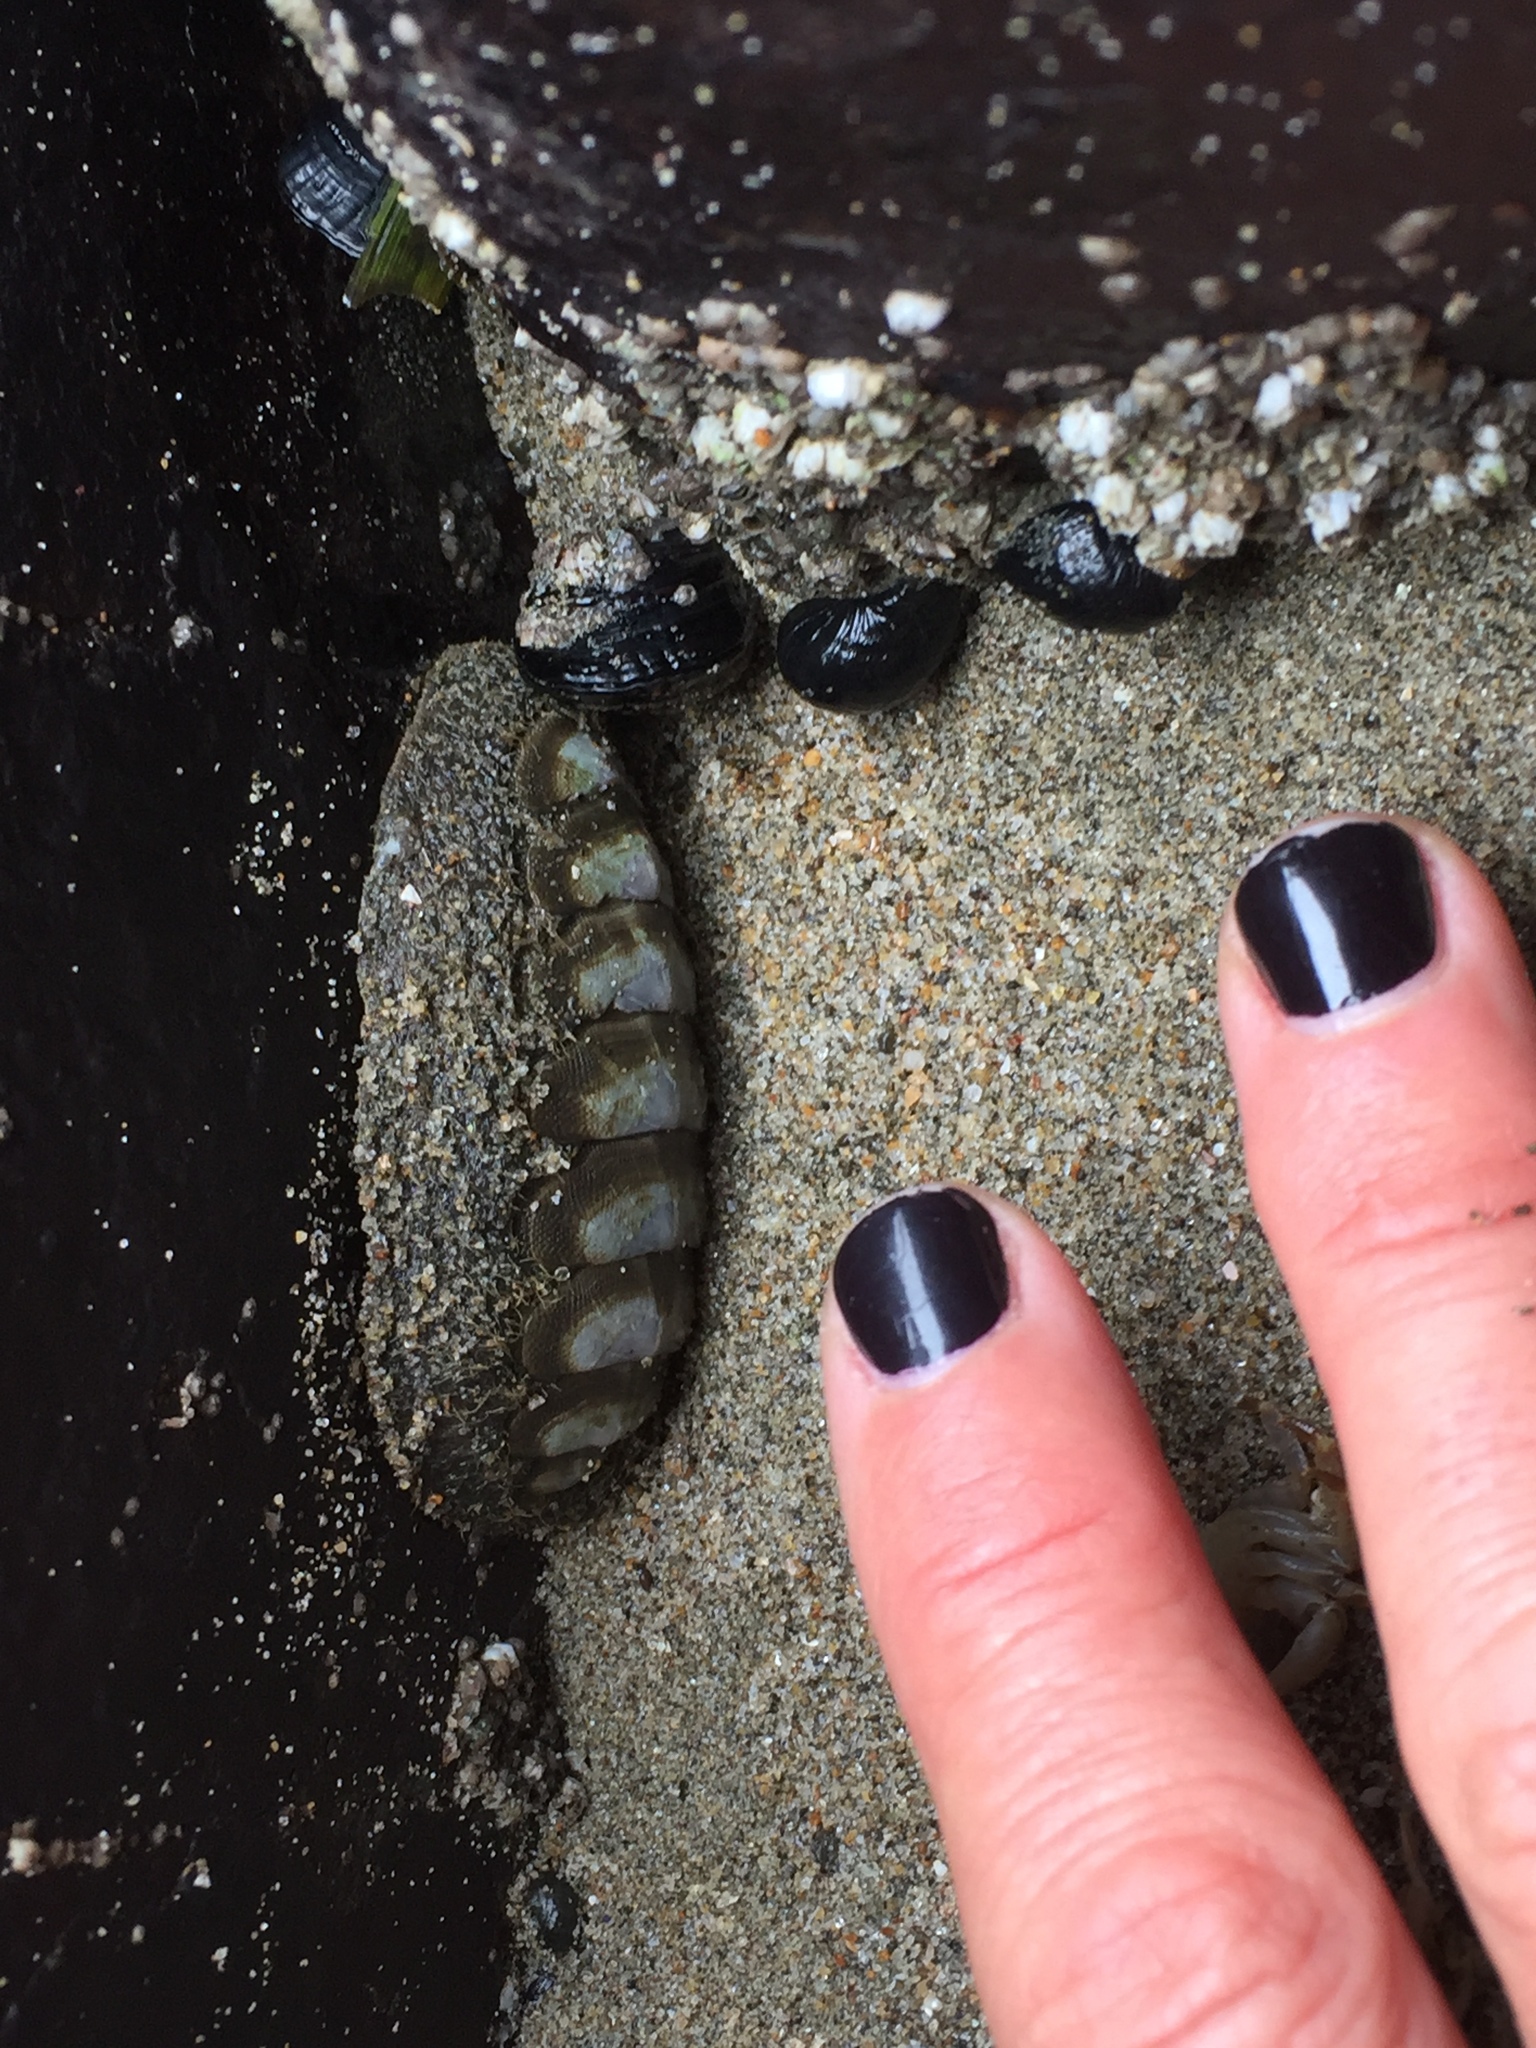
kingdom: Animalia
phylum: Mollusca
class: Polyplacophora
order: Chitonida
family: Mopaliidae
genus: Mopalia
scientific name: Mopalia hindsii
